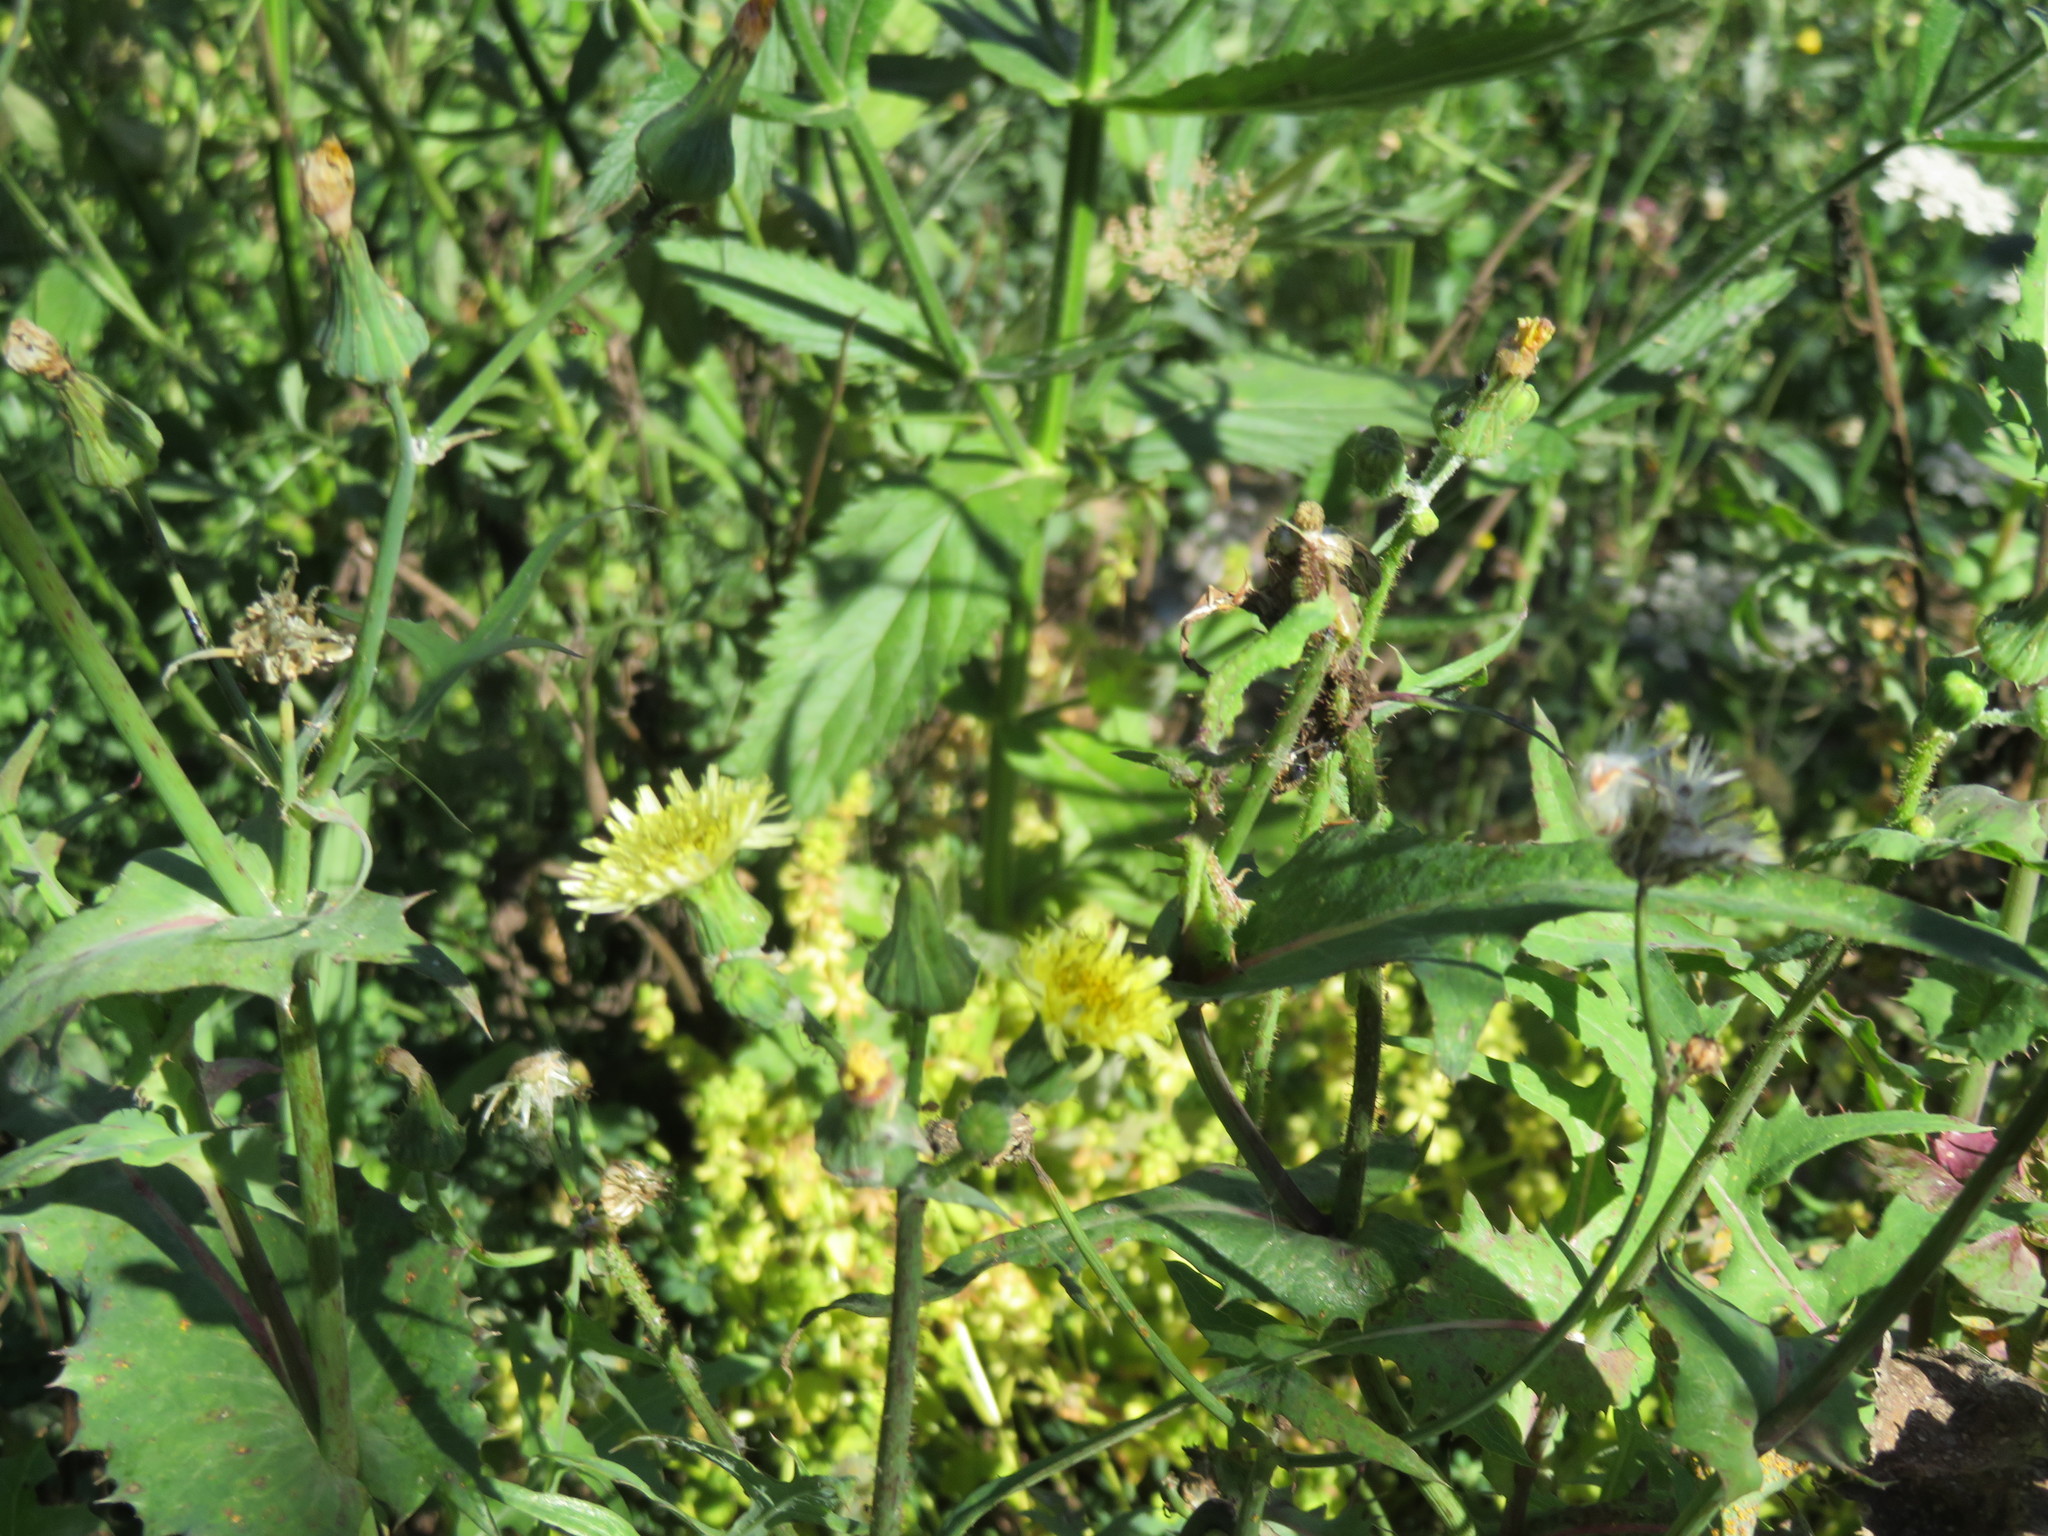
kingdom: Plantae
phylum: Tracheophyta
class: Magnoliopsida
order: Asterales
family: Asteraceae
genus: Sonchus
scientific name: Sonchus oleraceus
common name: Common sowthistle
